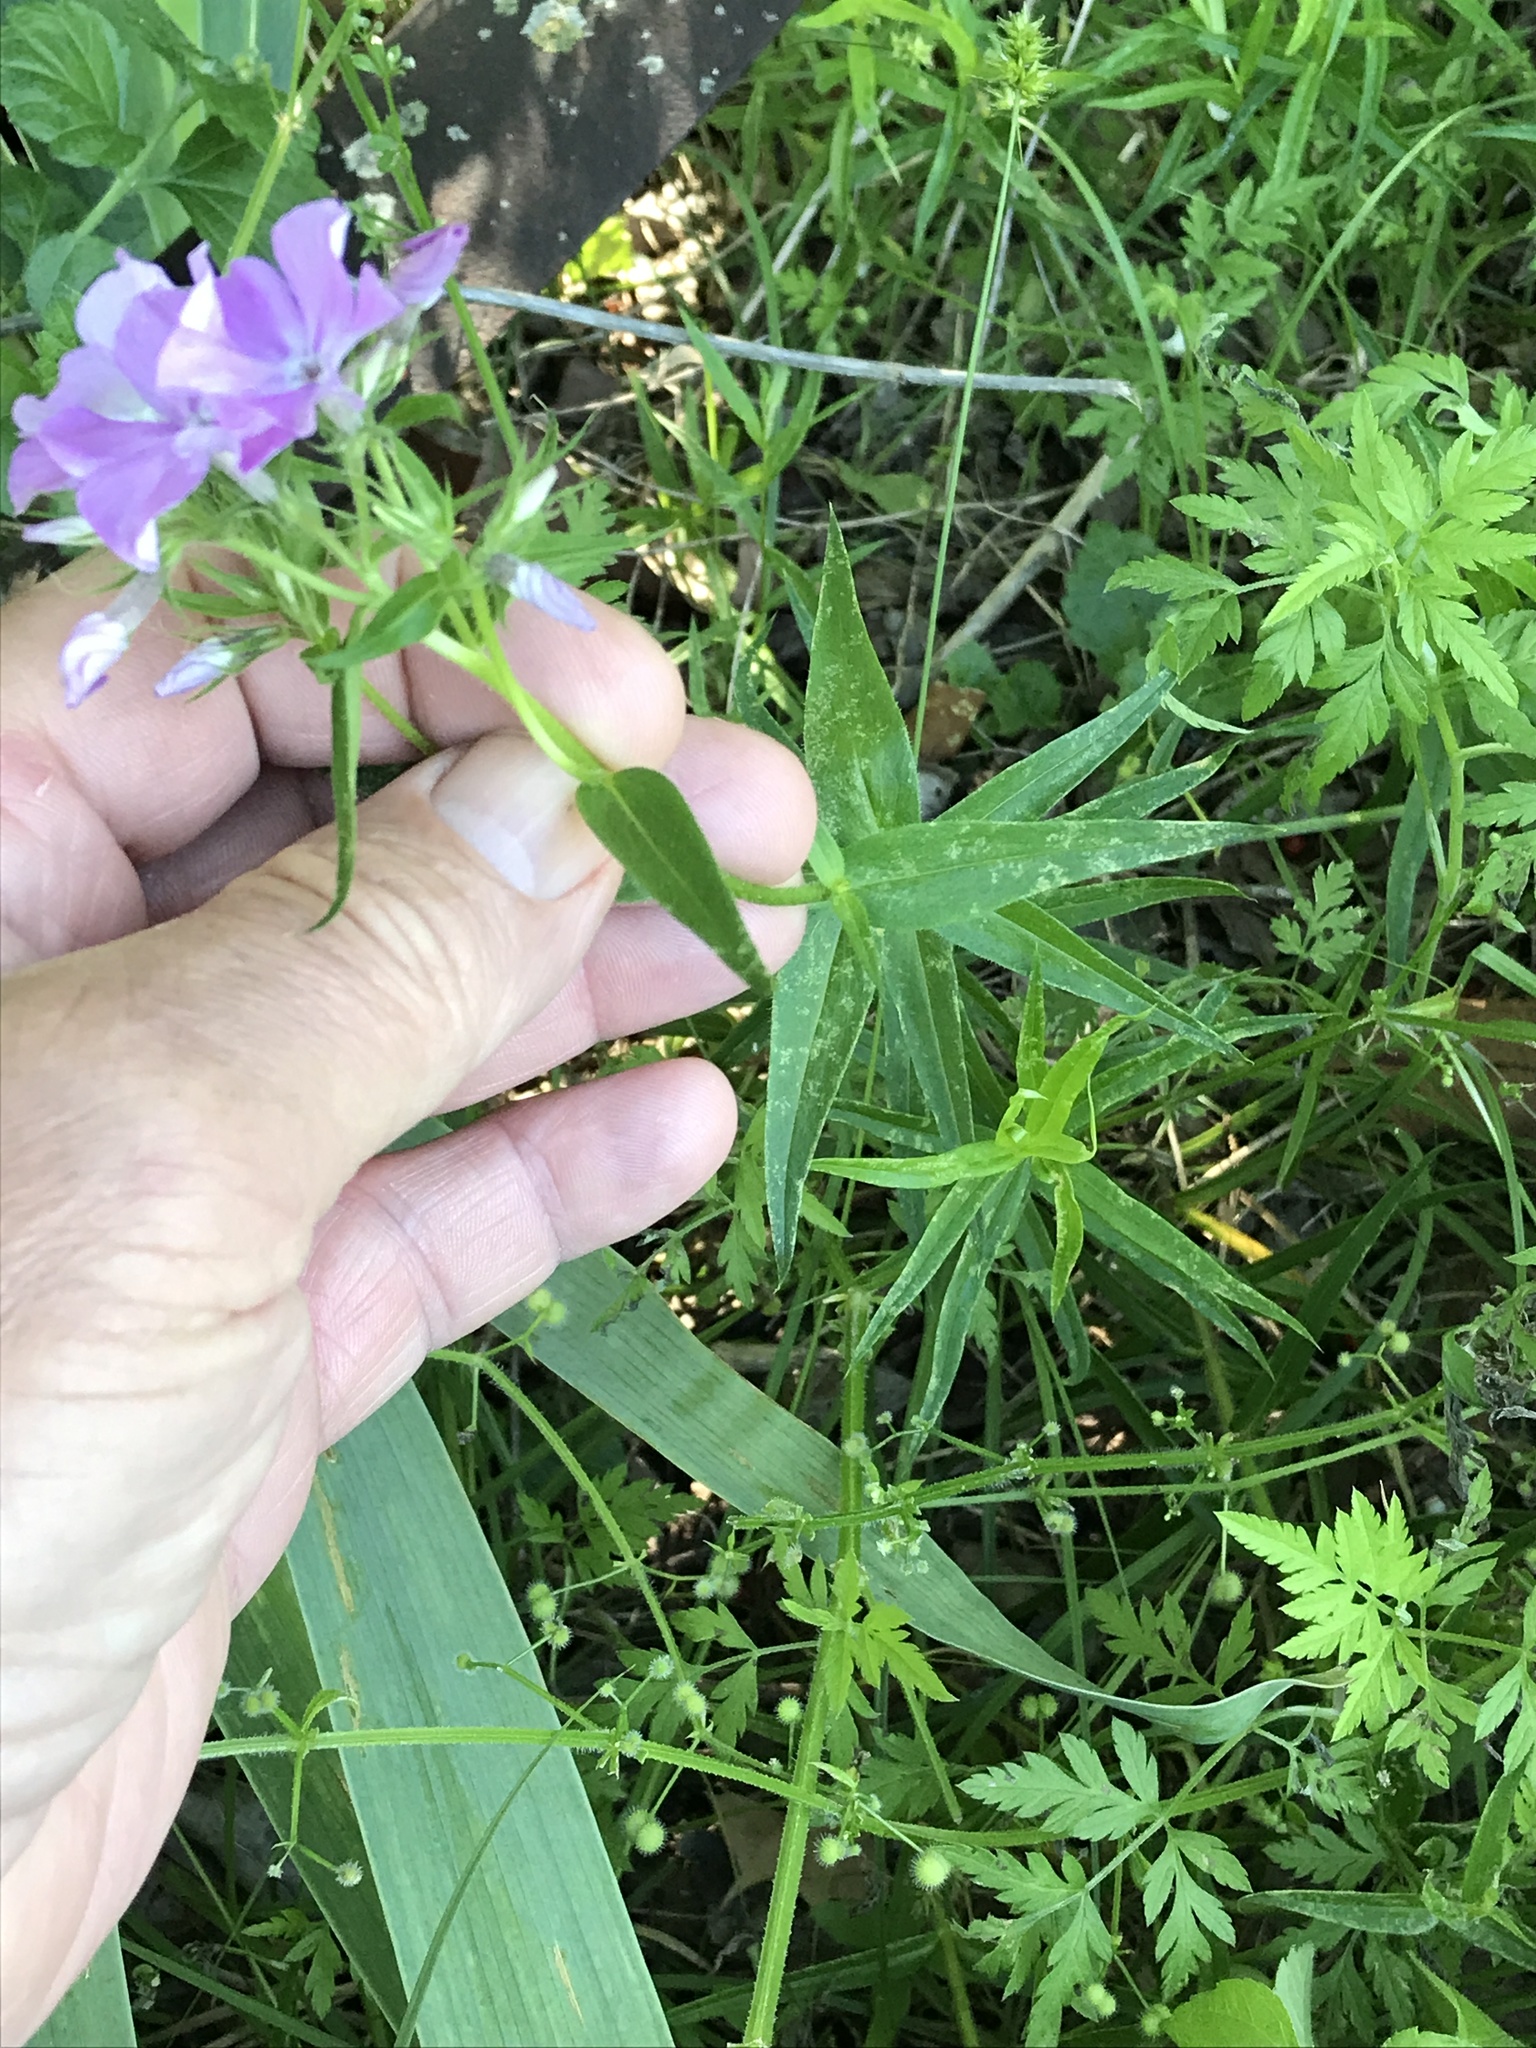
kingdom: Plantae
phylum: Tracheophyta
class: Magnoliopsida
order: Ericales
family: Polemoniaceae
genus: Phlox
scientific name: Phlox pilosa
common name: Prairie phlox
